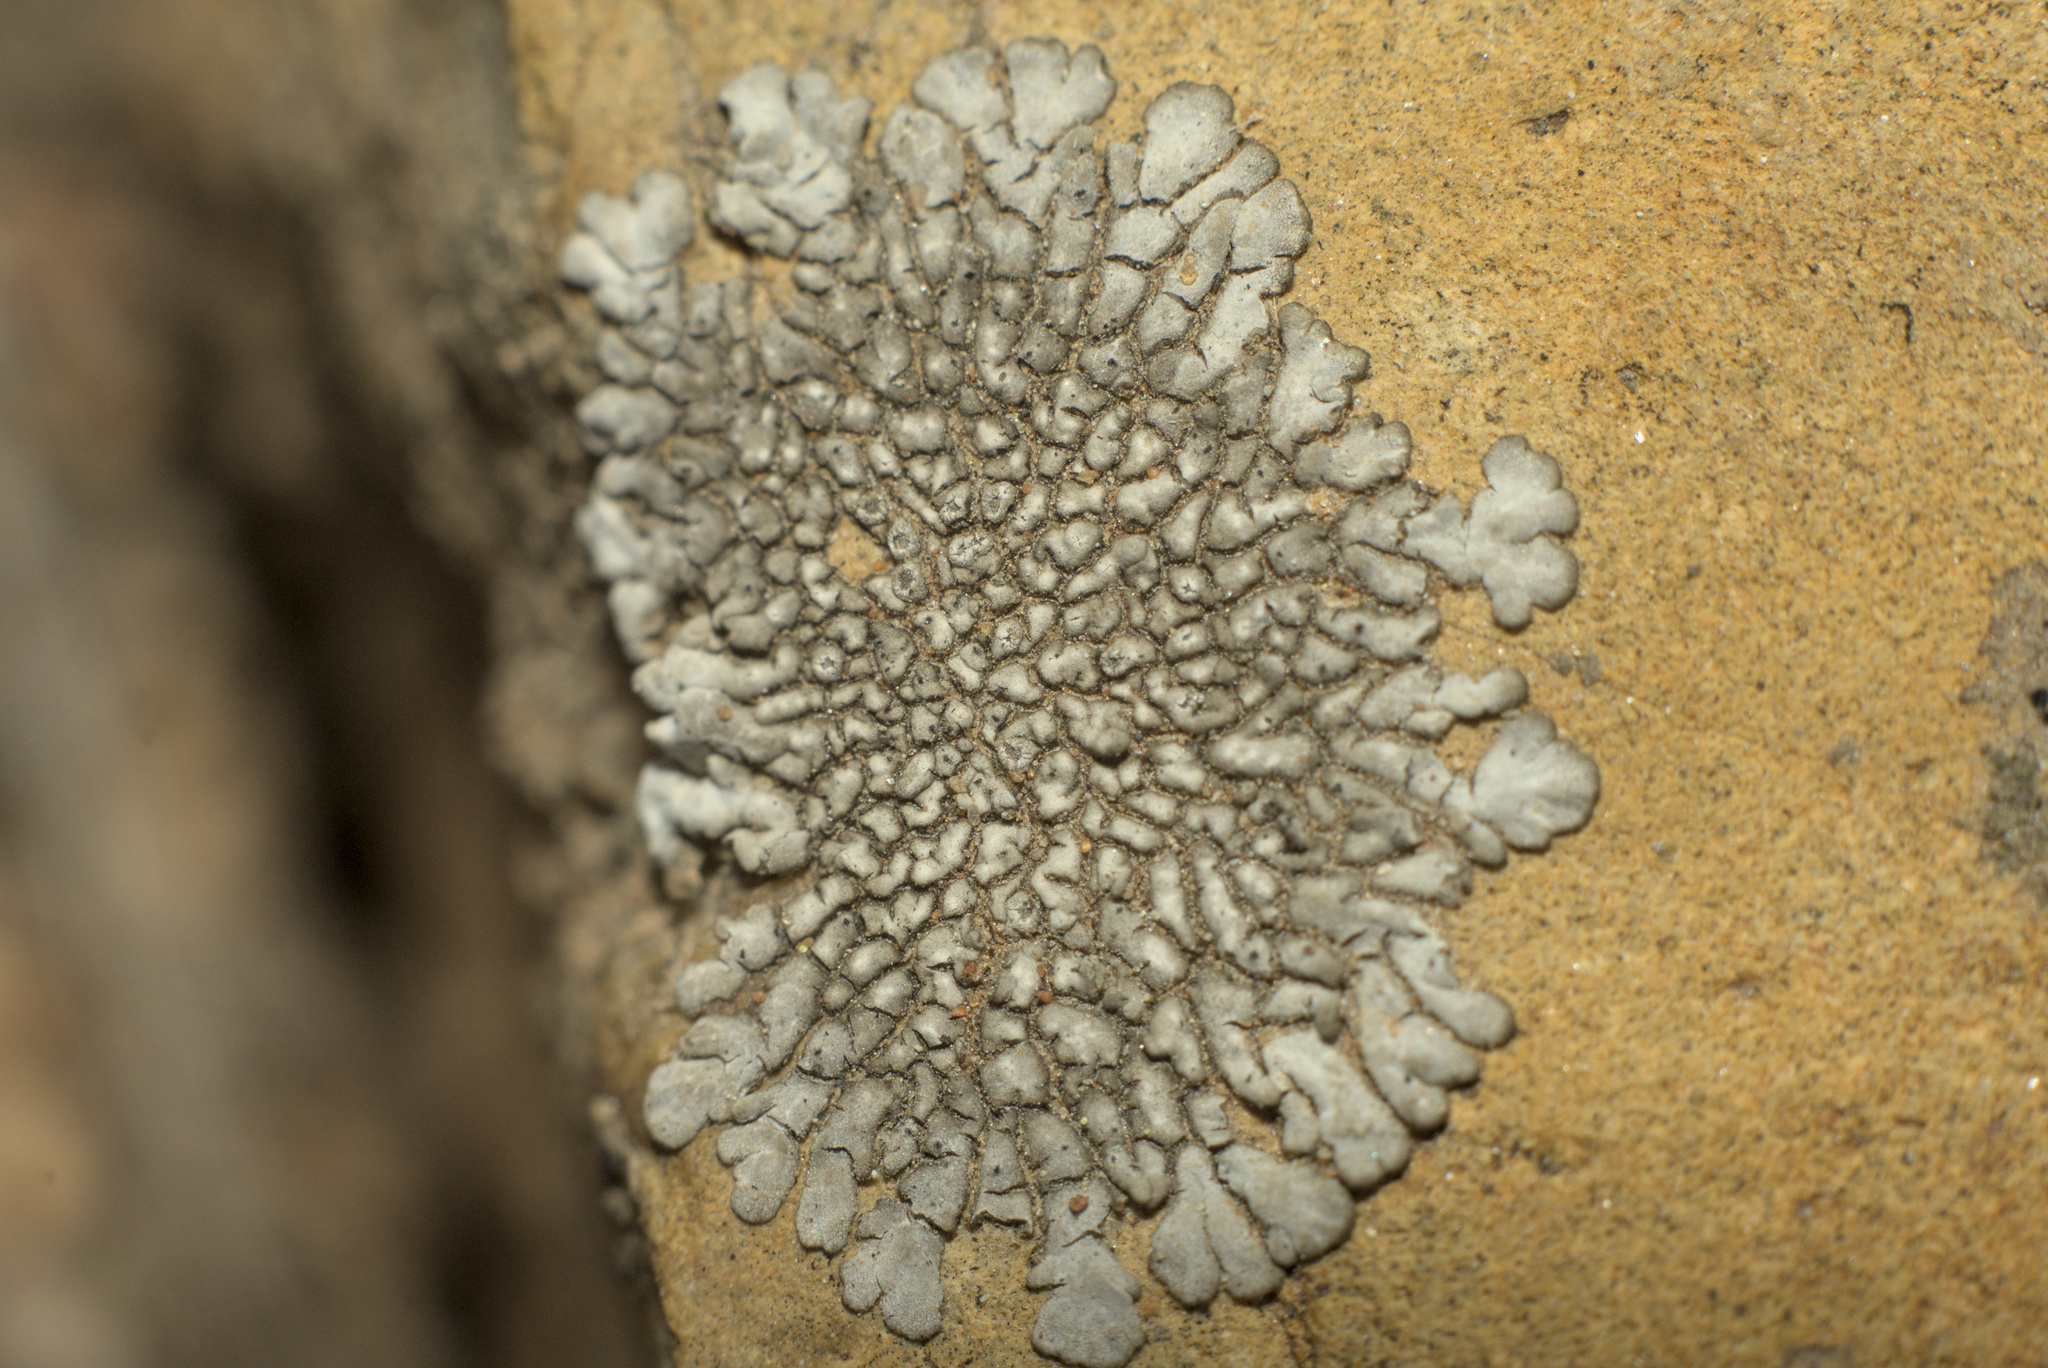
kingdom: Fungi
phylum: Ascomycota
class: Lecanoromycetes
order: Caliciales
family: Caliciaceae
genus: Dimelaena
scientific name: Dimelaena radiata
